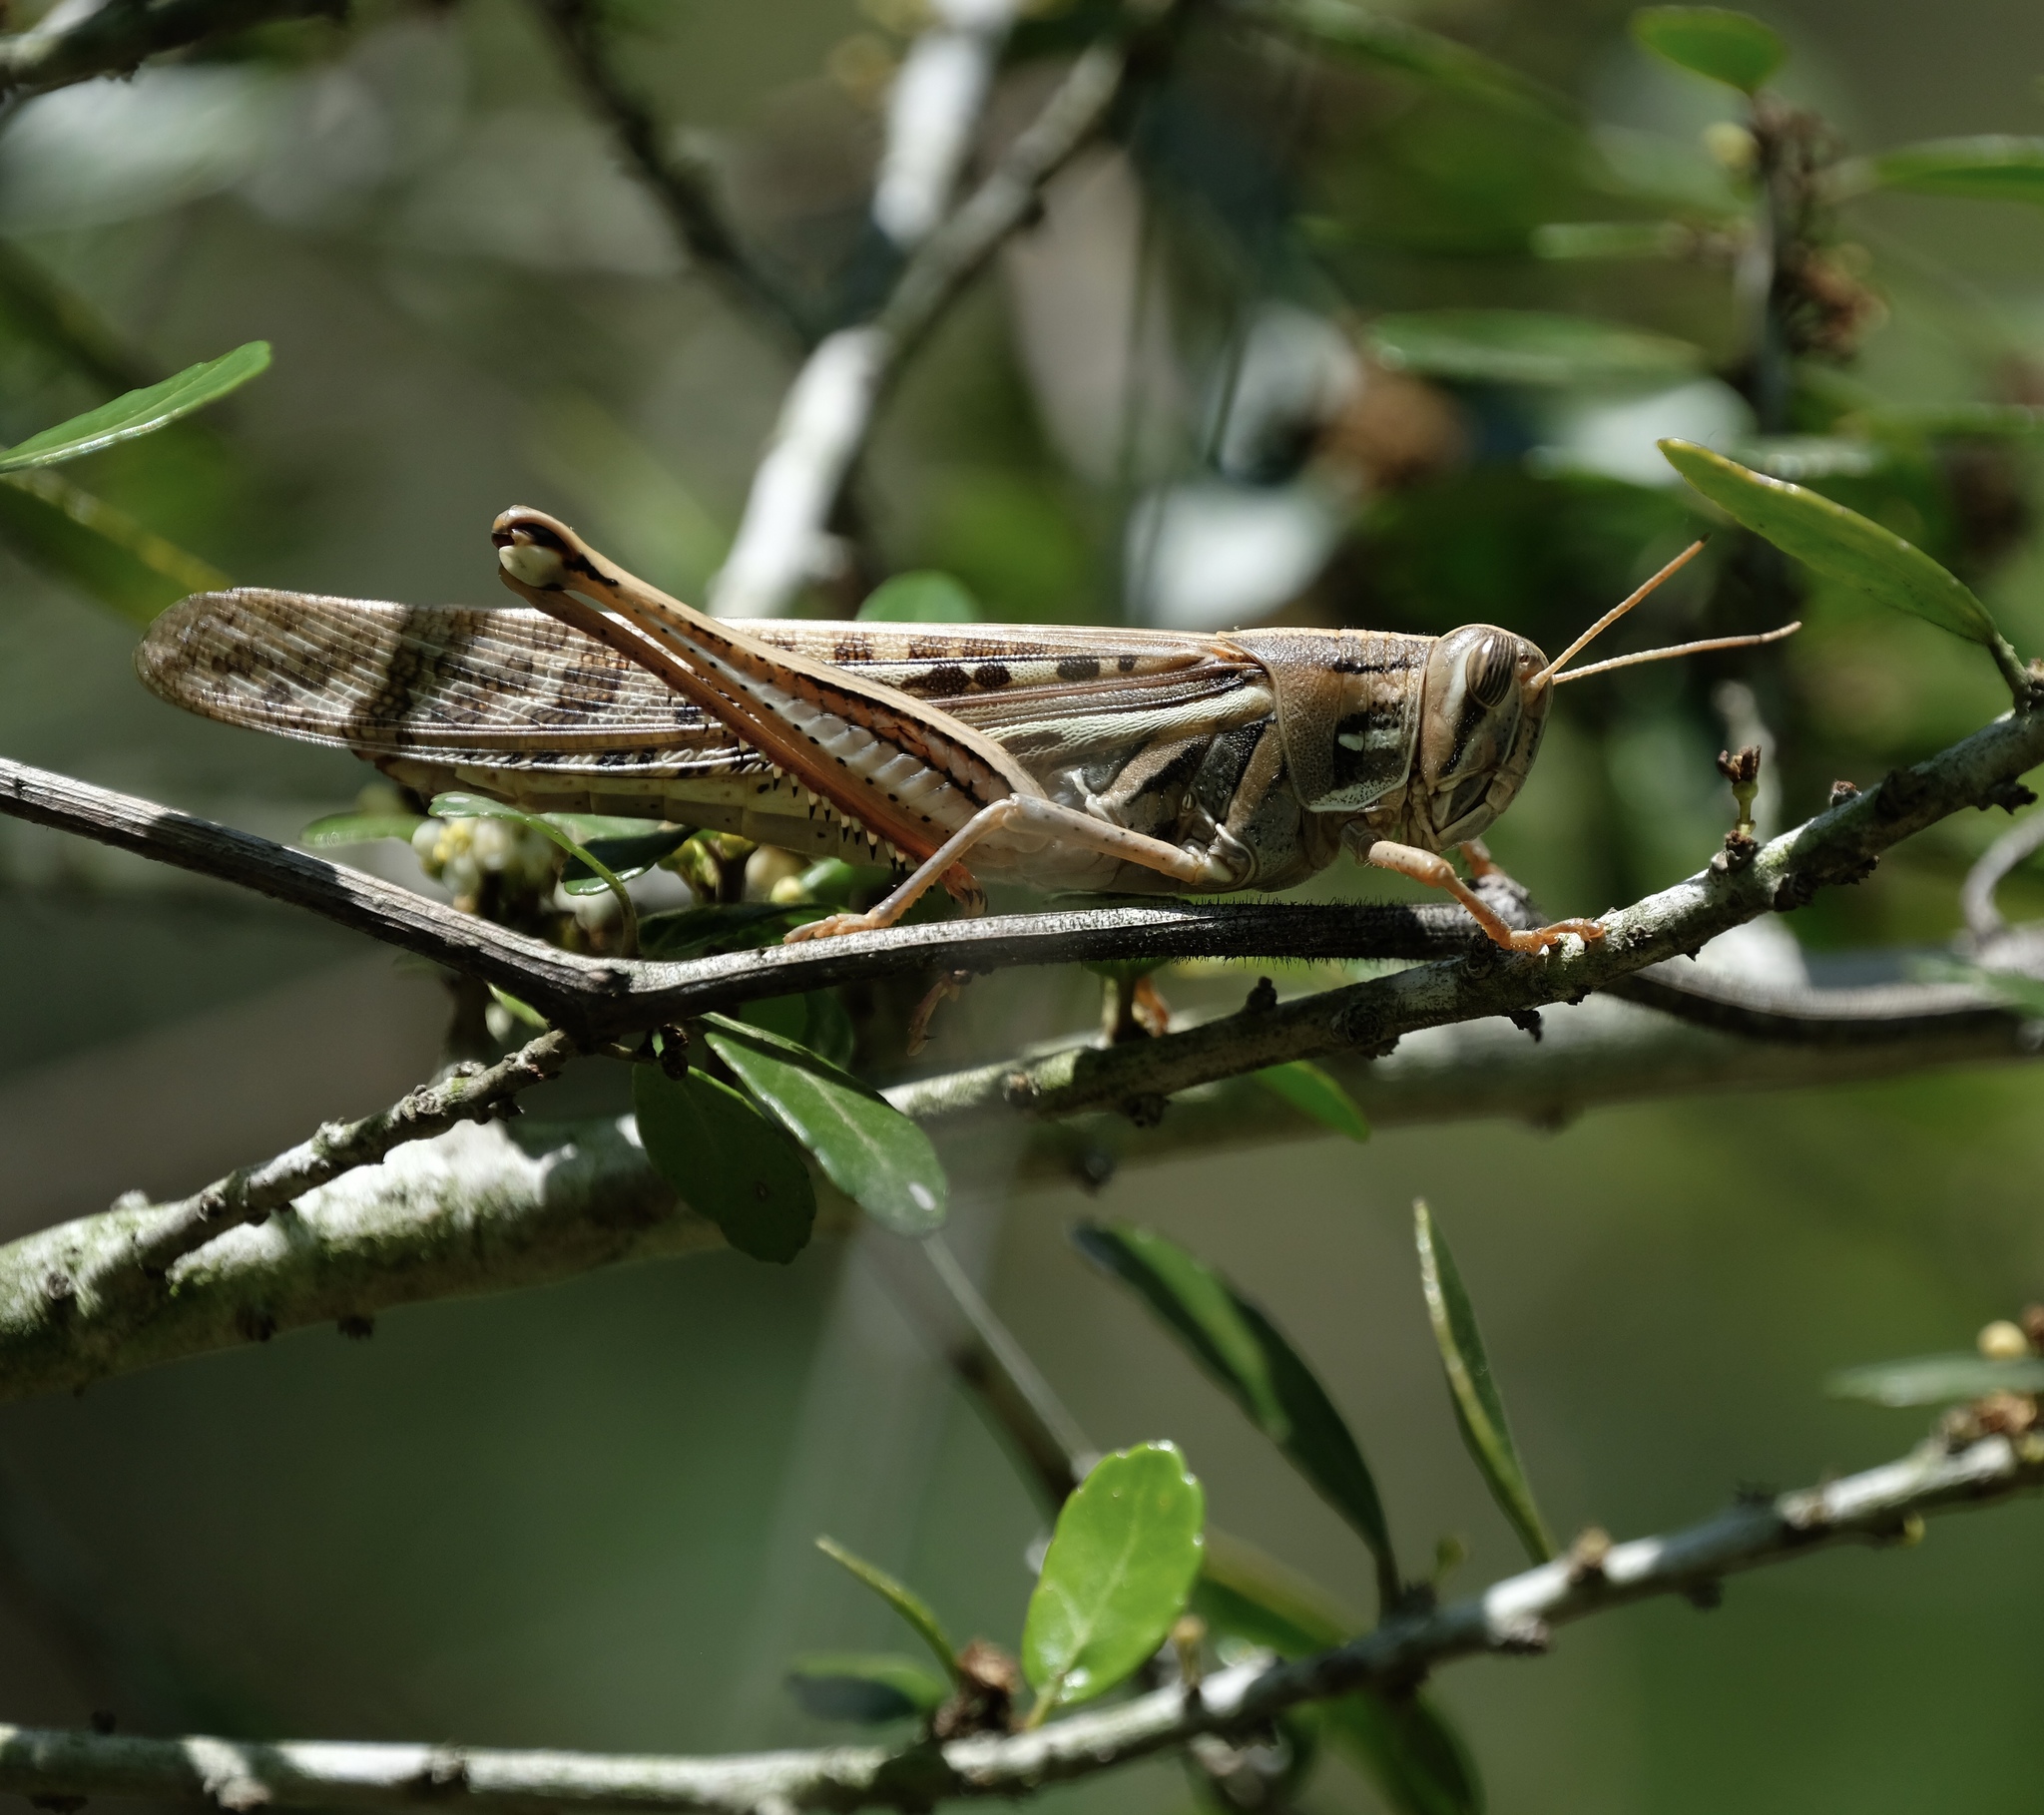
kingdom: Animalia
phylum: Arthropoda
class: Insecta
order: Orthoptera
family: Acrididae
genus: Schistocerca
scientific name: Schistocerca americana
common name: American bird locust
